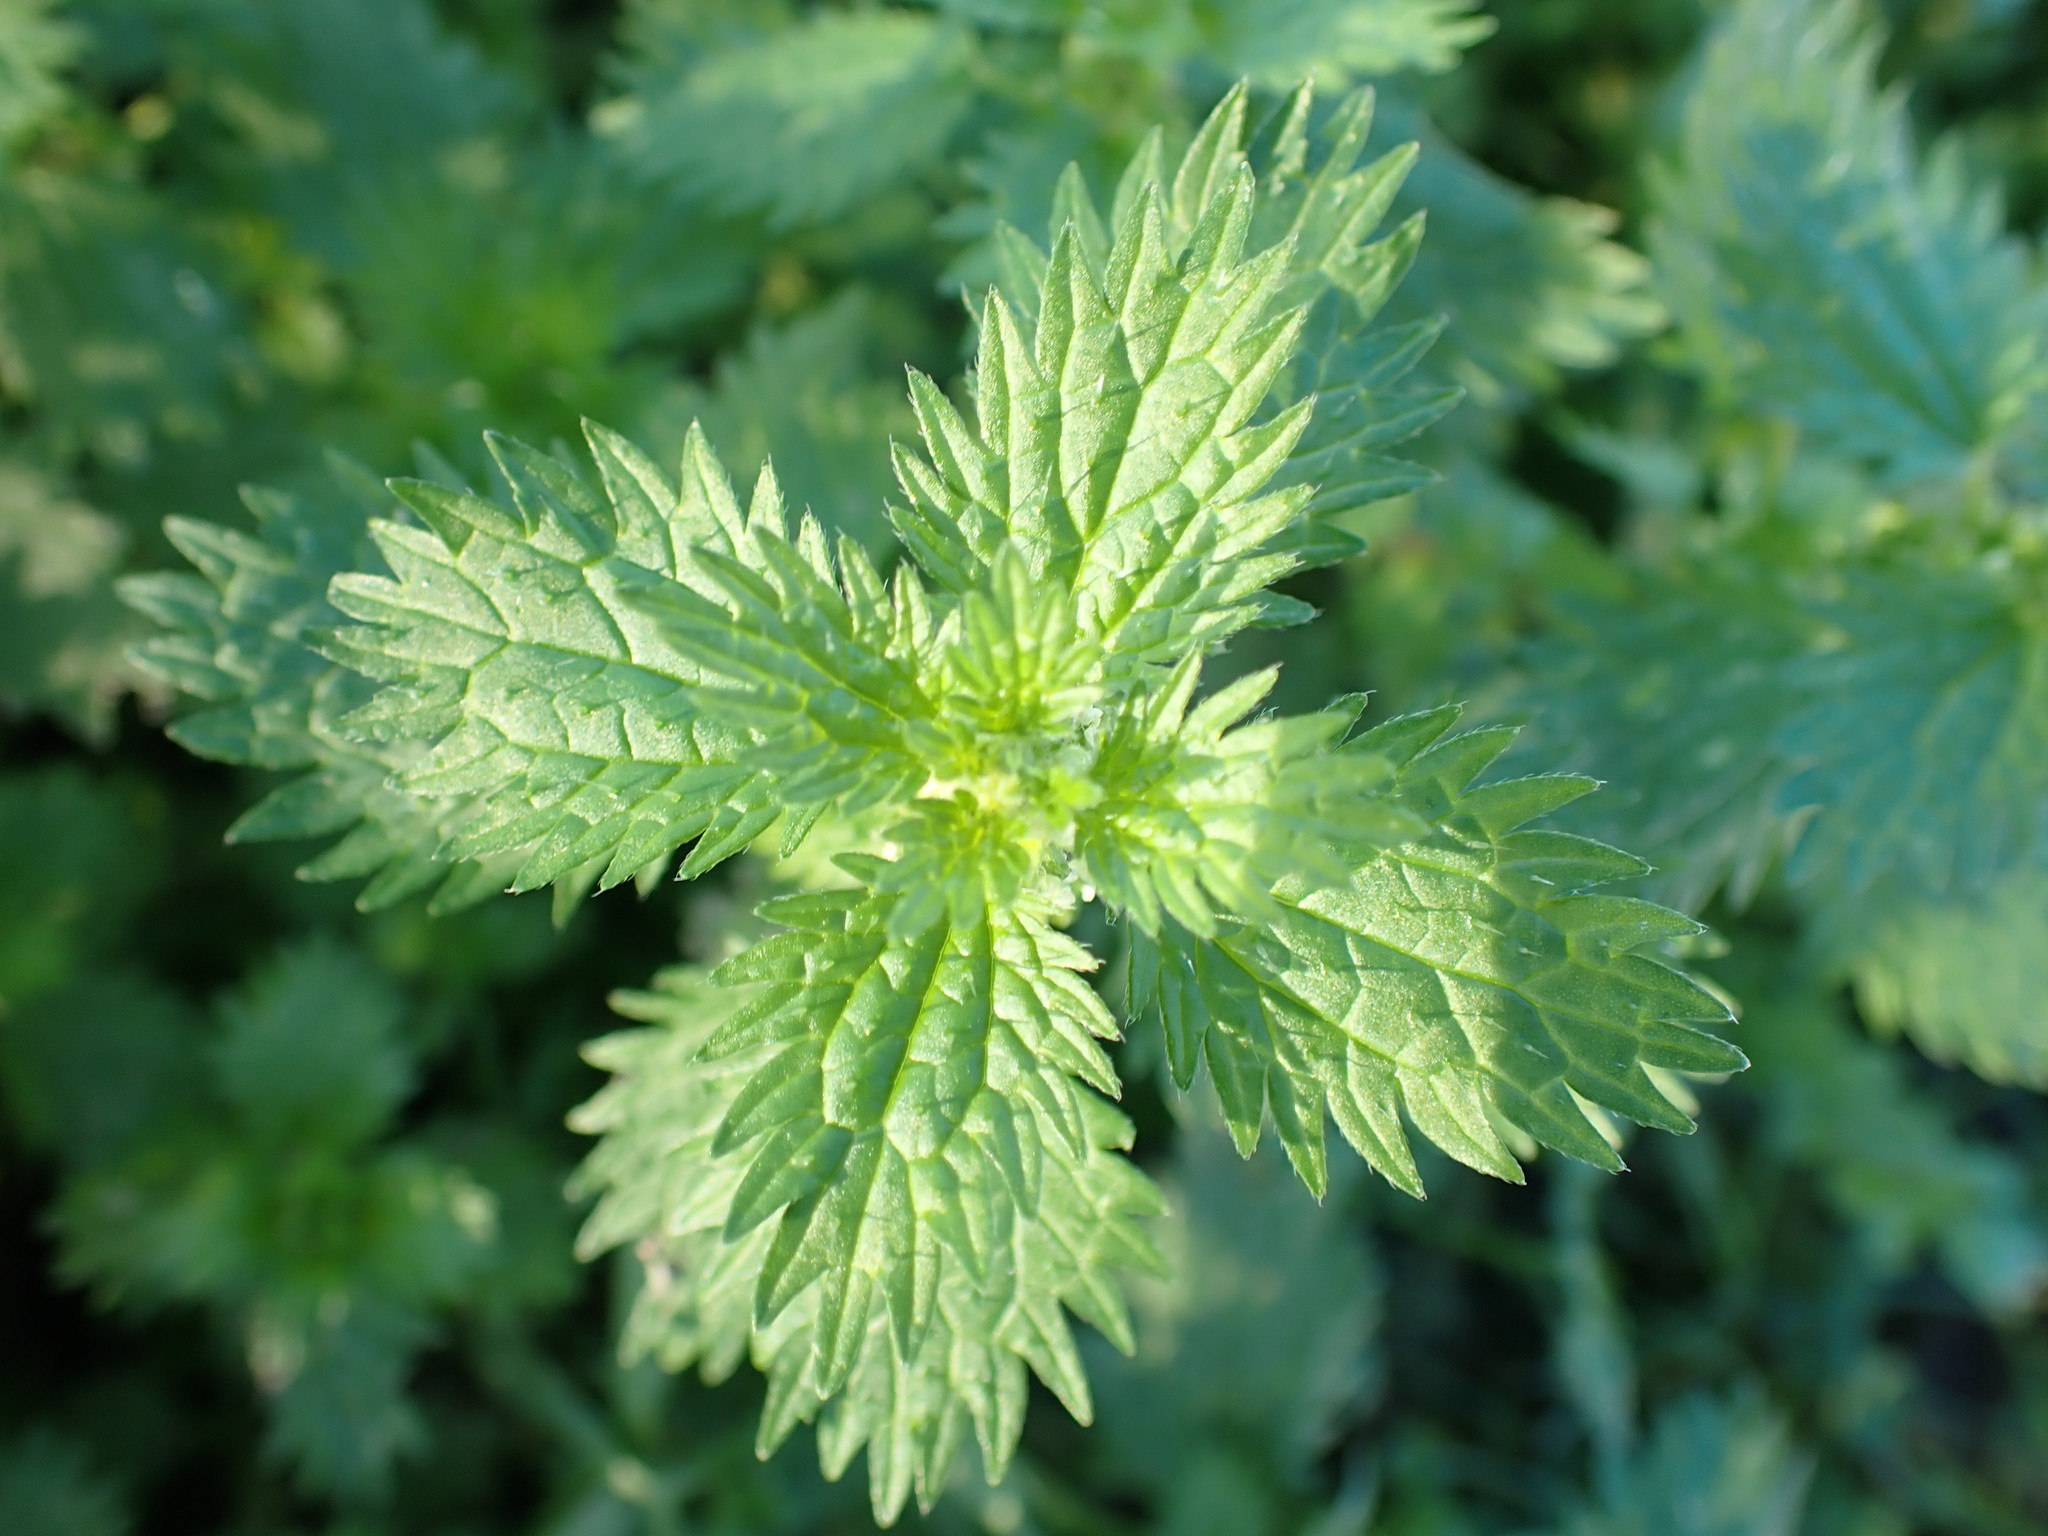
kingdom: Plantae
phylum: Tracheophyta
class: Magnoliopsida
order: Rosales
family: Urticaceae
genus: Urtica
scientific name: Urtica urens
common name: Dwarf nettle
